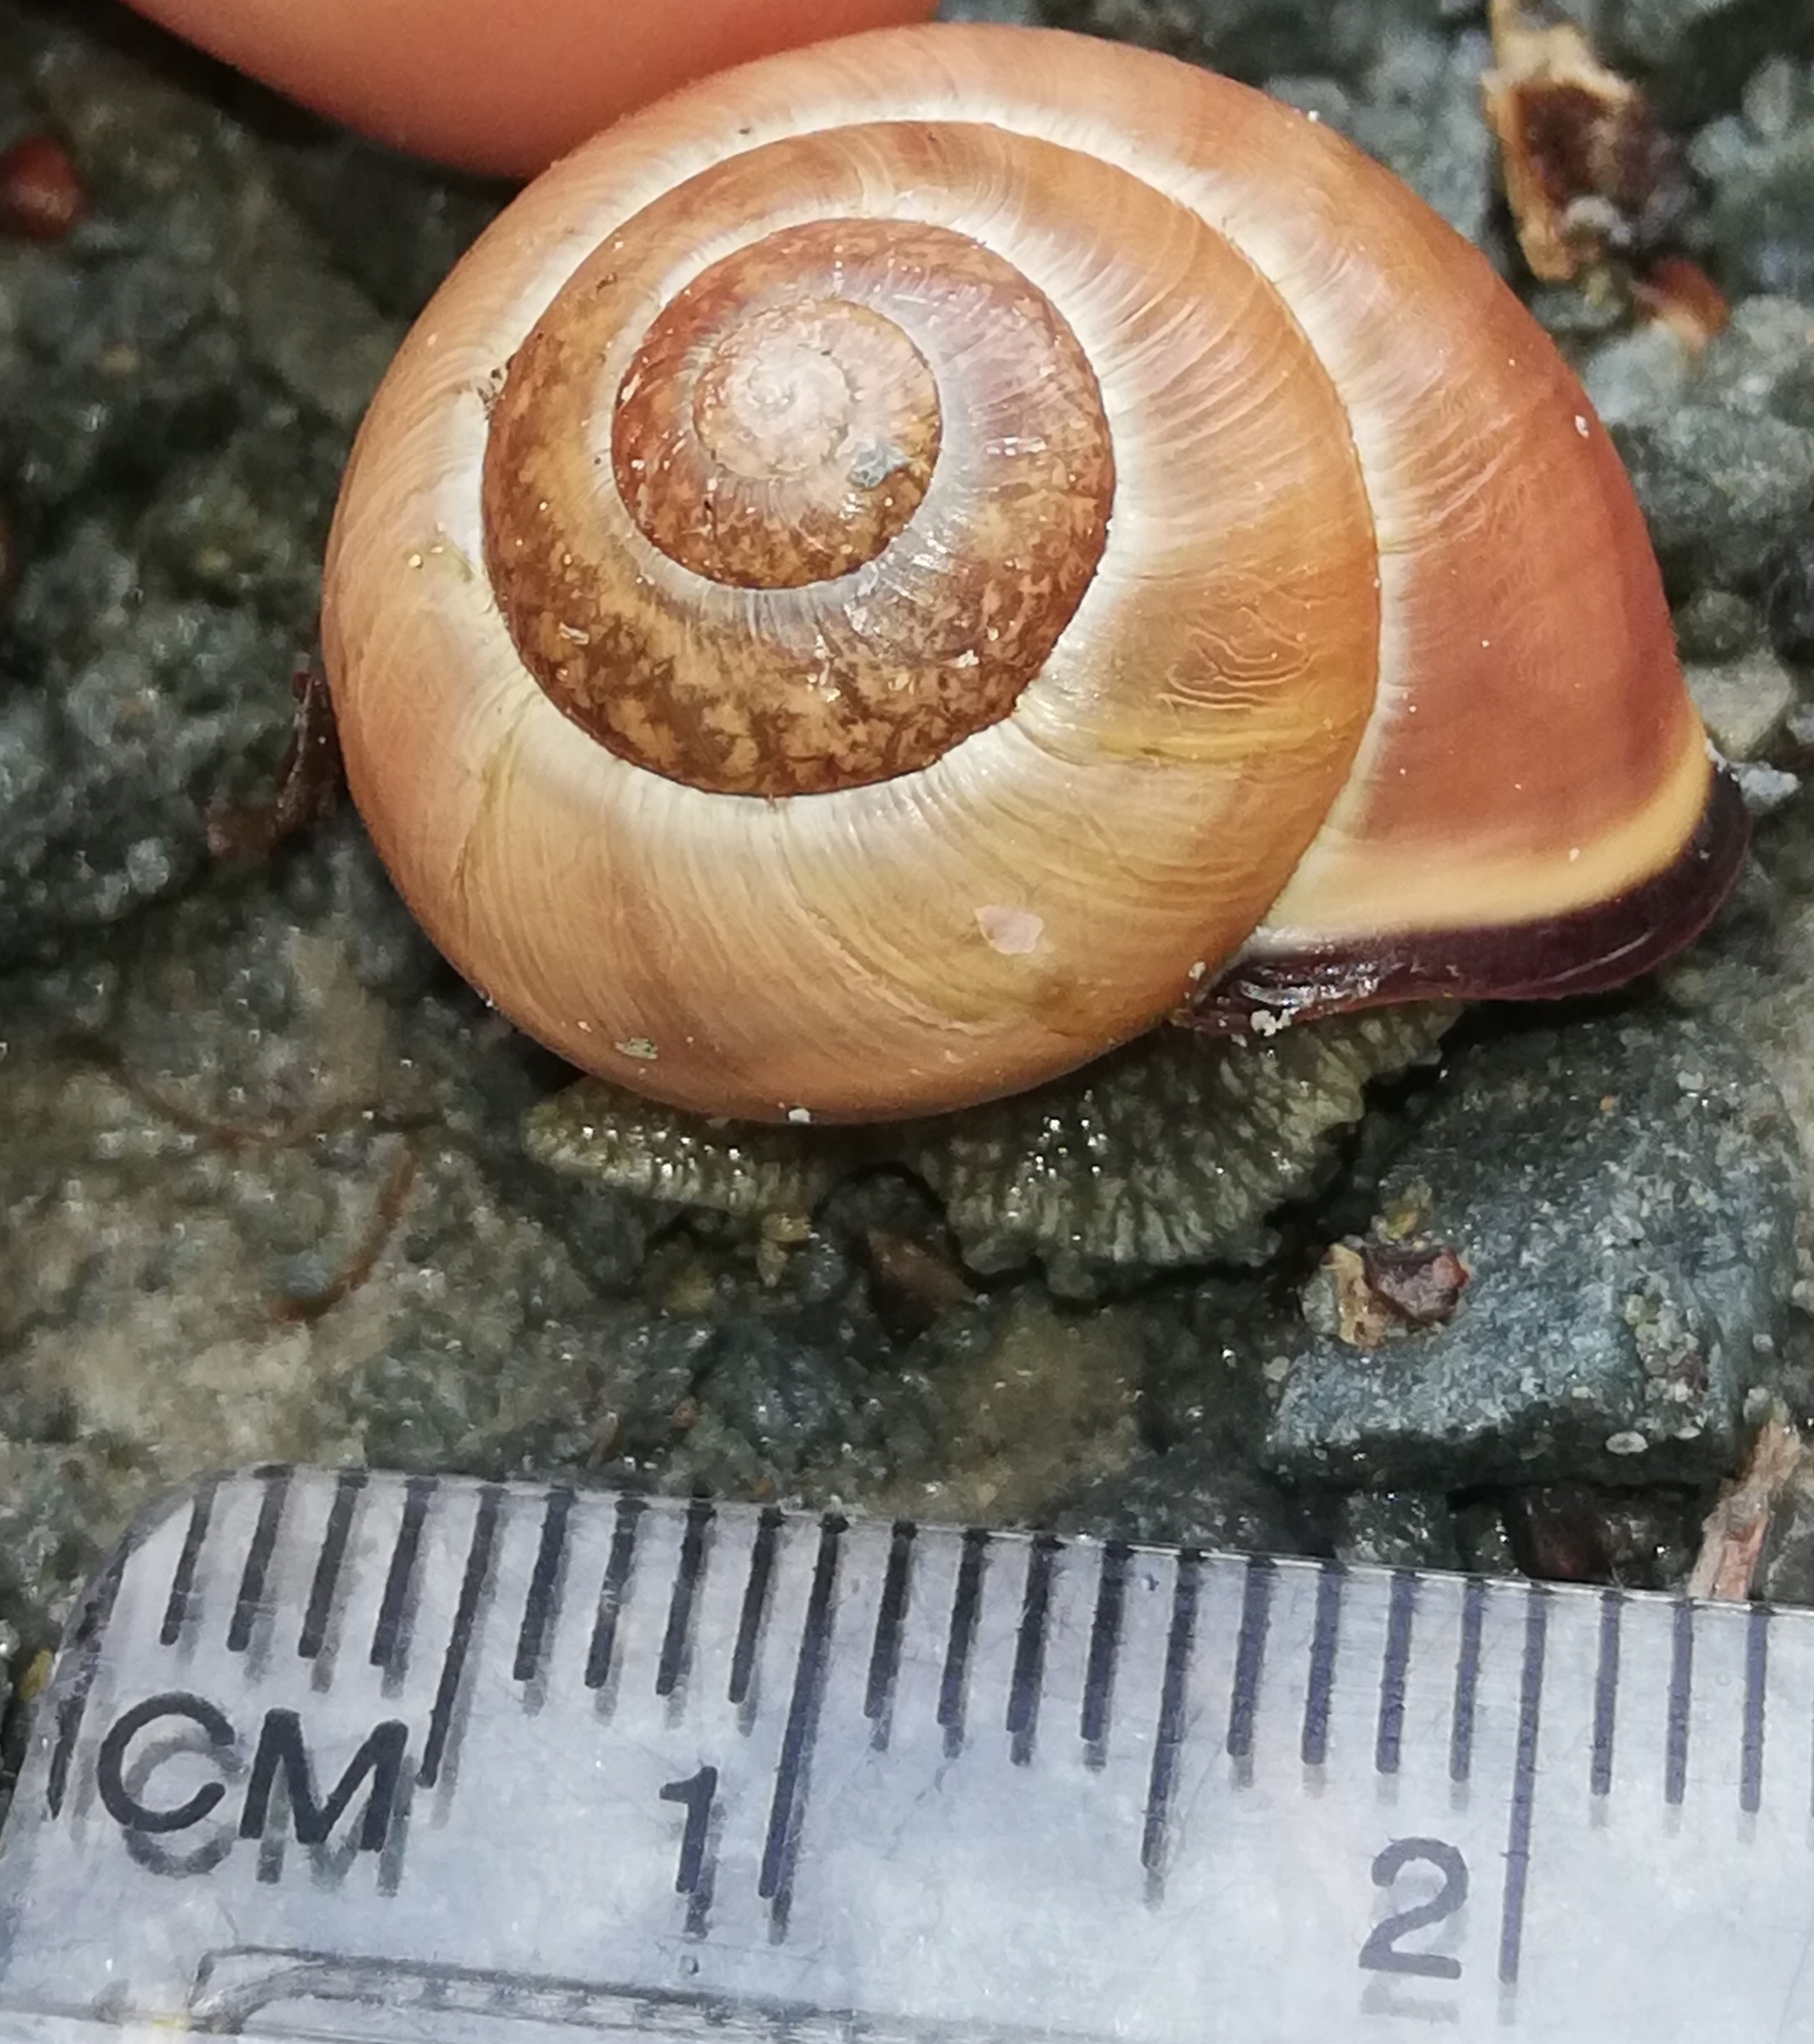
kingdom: Animalia
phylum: Mollusca
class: Gastropoda
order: Stylommatophora
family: Helicidae
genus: Cepaea
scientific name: Cepaea nemoralis
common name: Grovesnail
